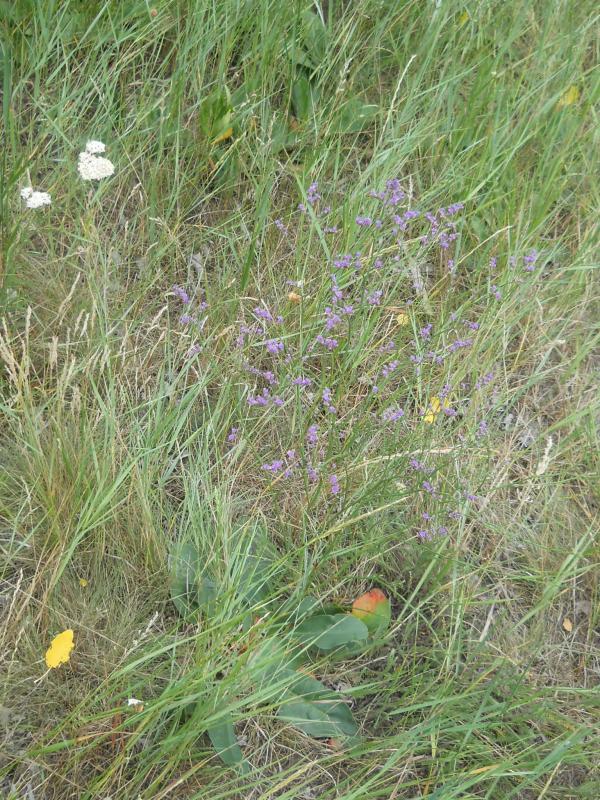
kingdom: Plantae
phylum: Tracheophyta
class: Magnoliopsida
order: Caryophyllales
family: Plumbaginaceae
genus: Limonium
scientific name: Limonium gmelini
